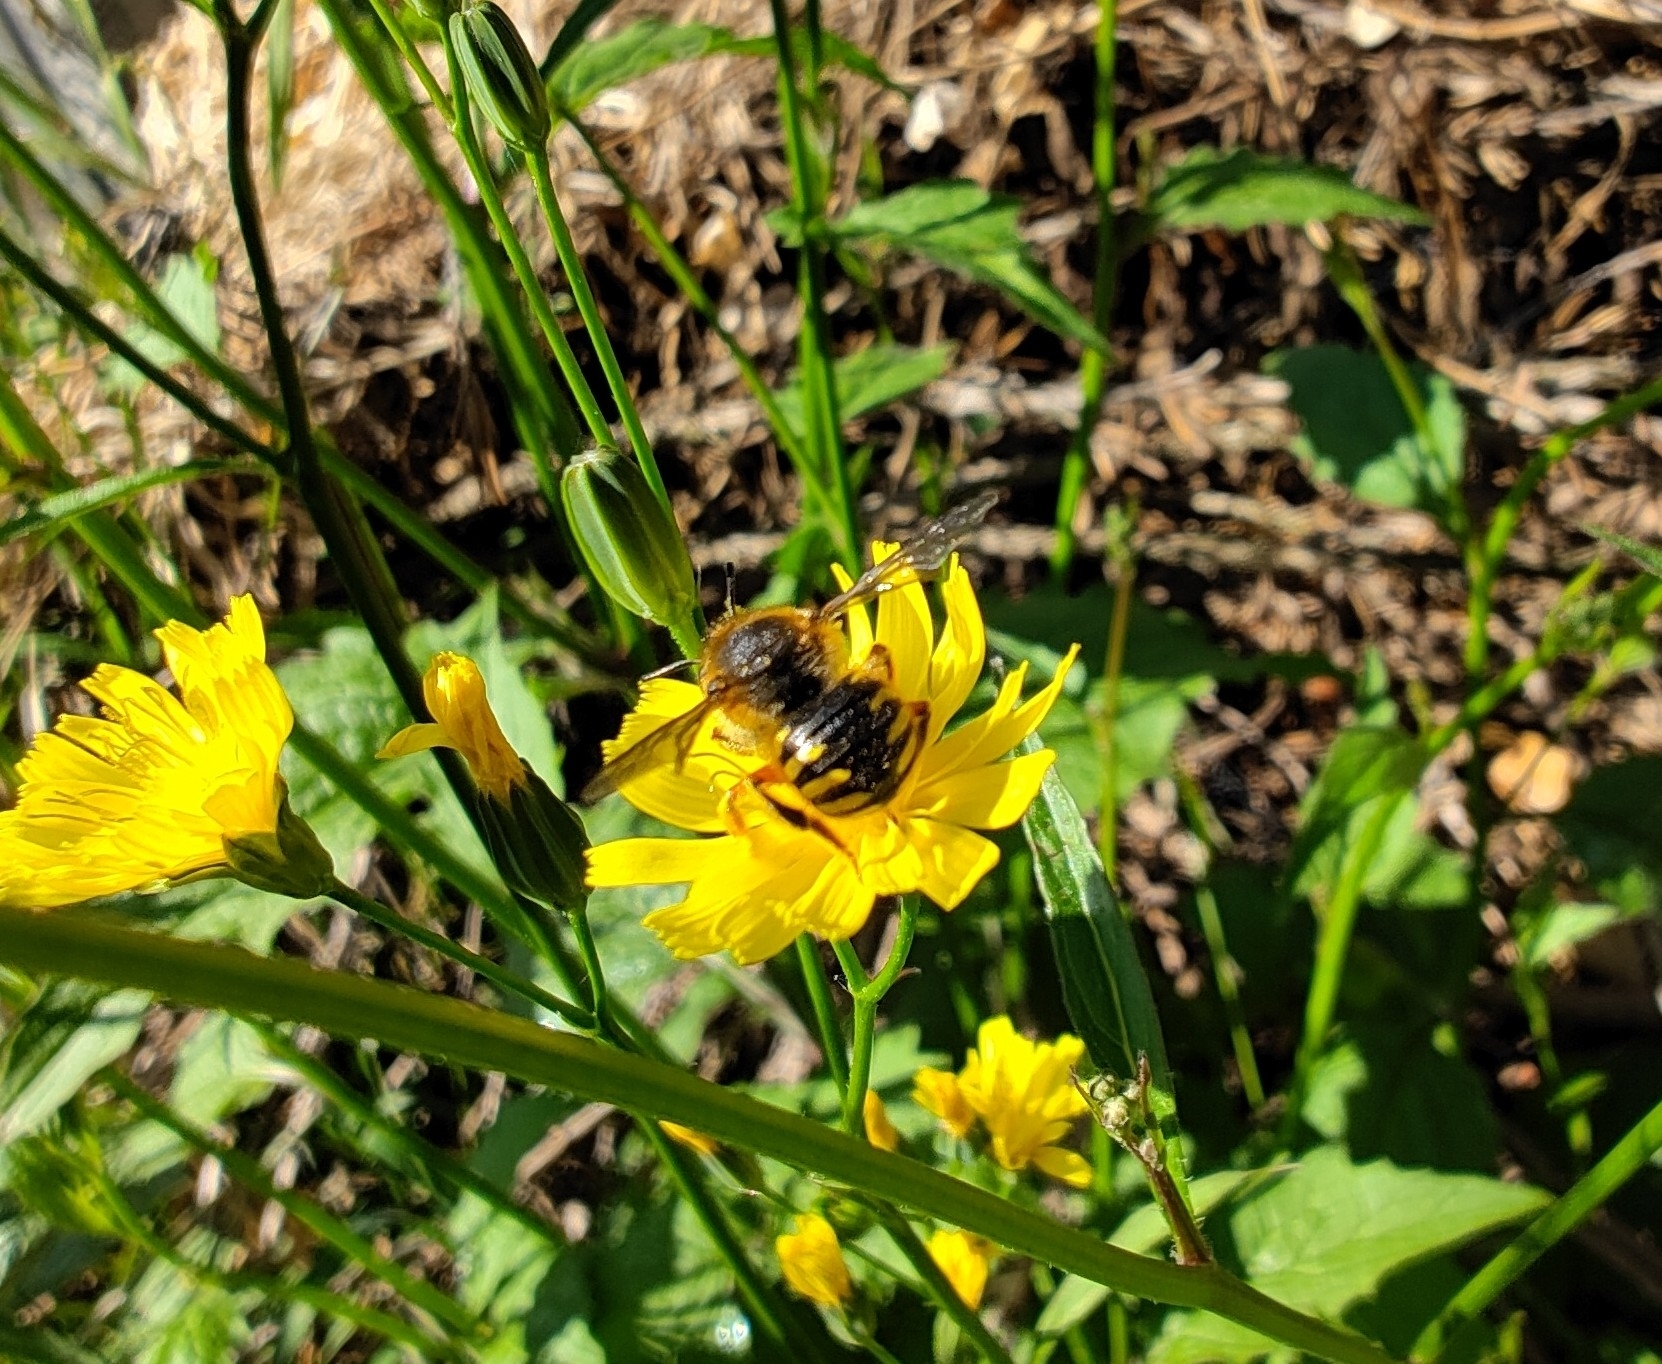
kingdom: Animalia
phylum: Arthropoda
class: Insecta
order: Hymenoptera
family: Megachilidae
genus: Anthidium
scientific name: Anthidium manicatum
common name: Wool carder bee
